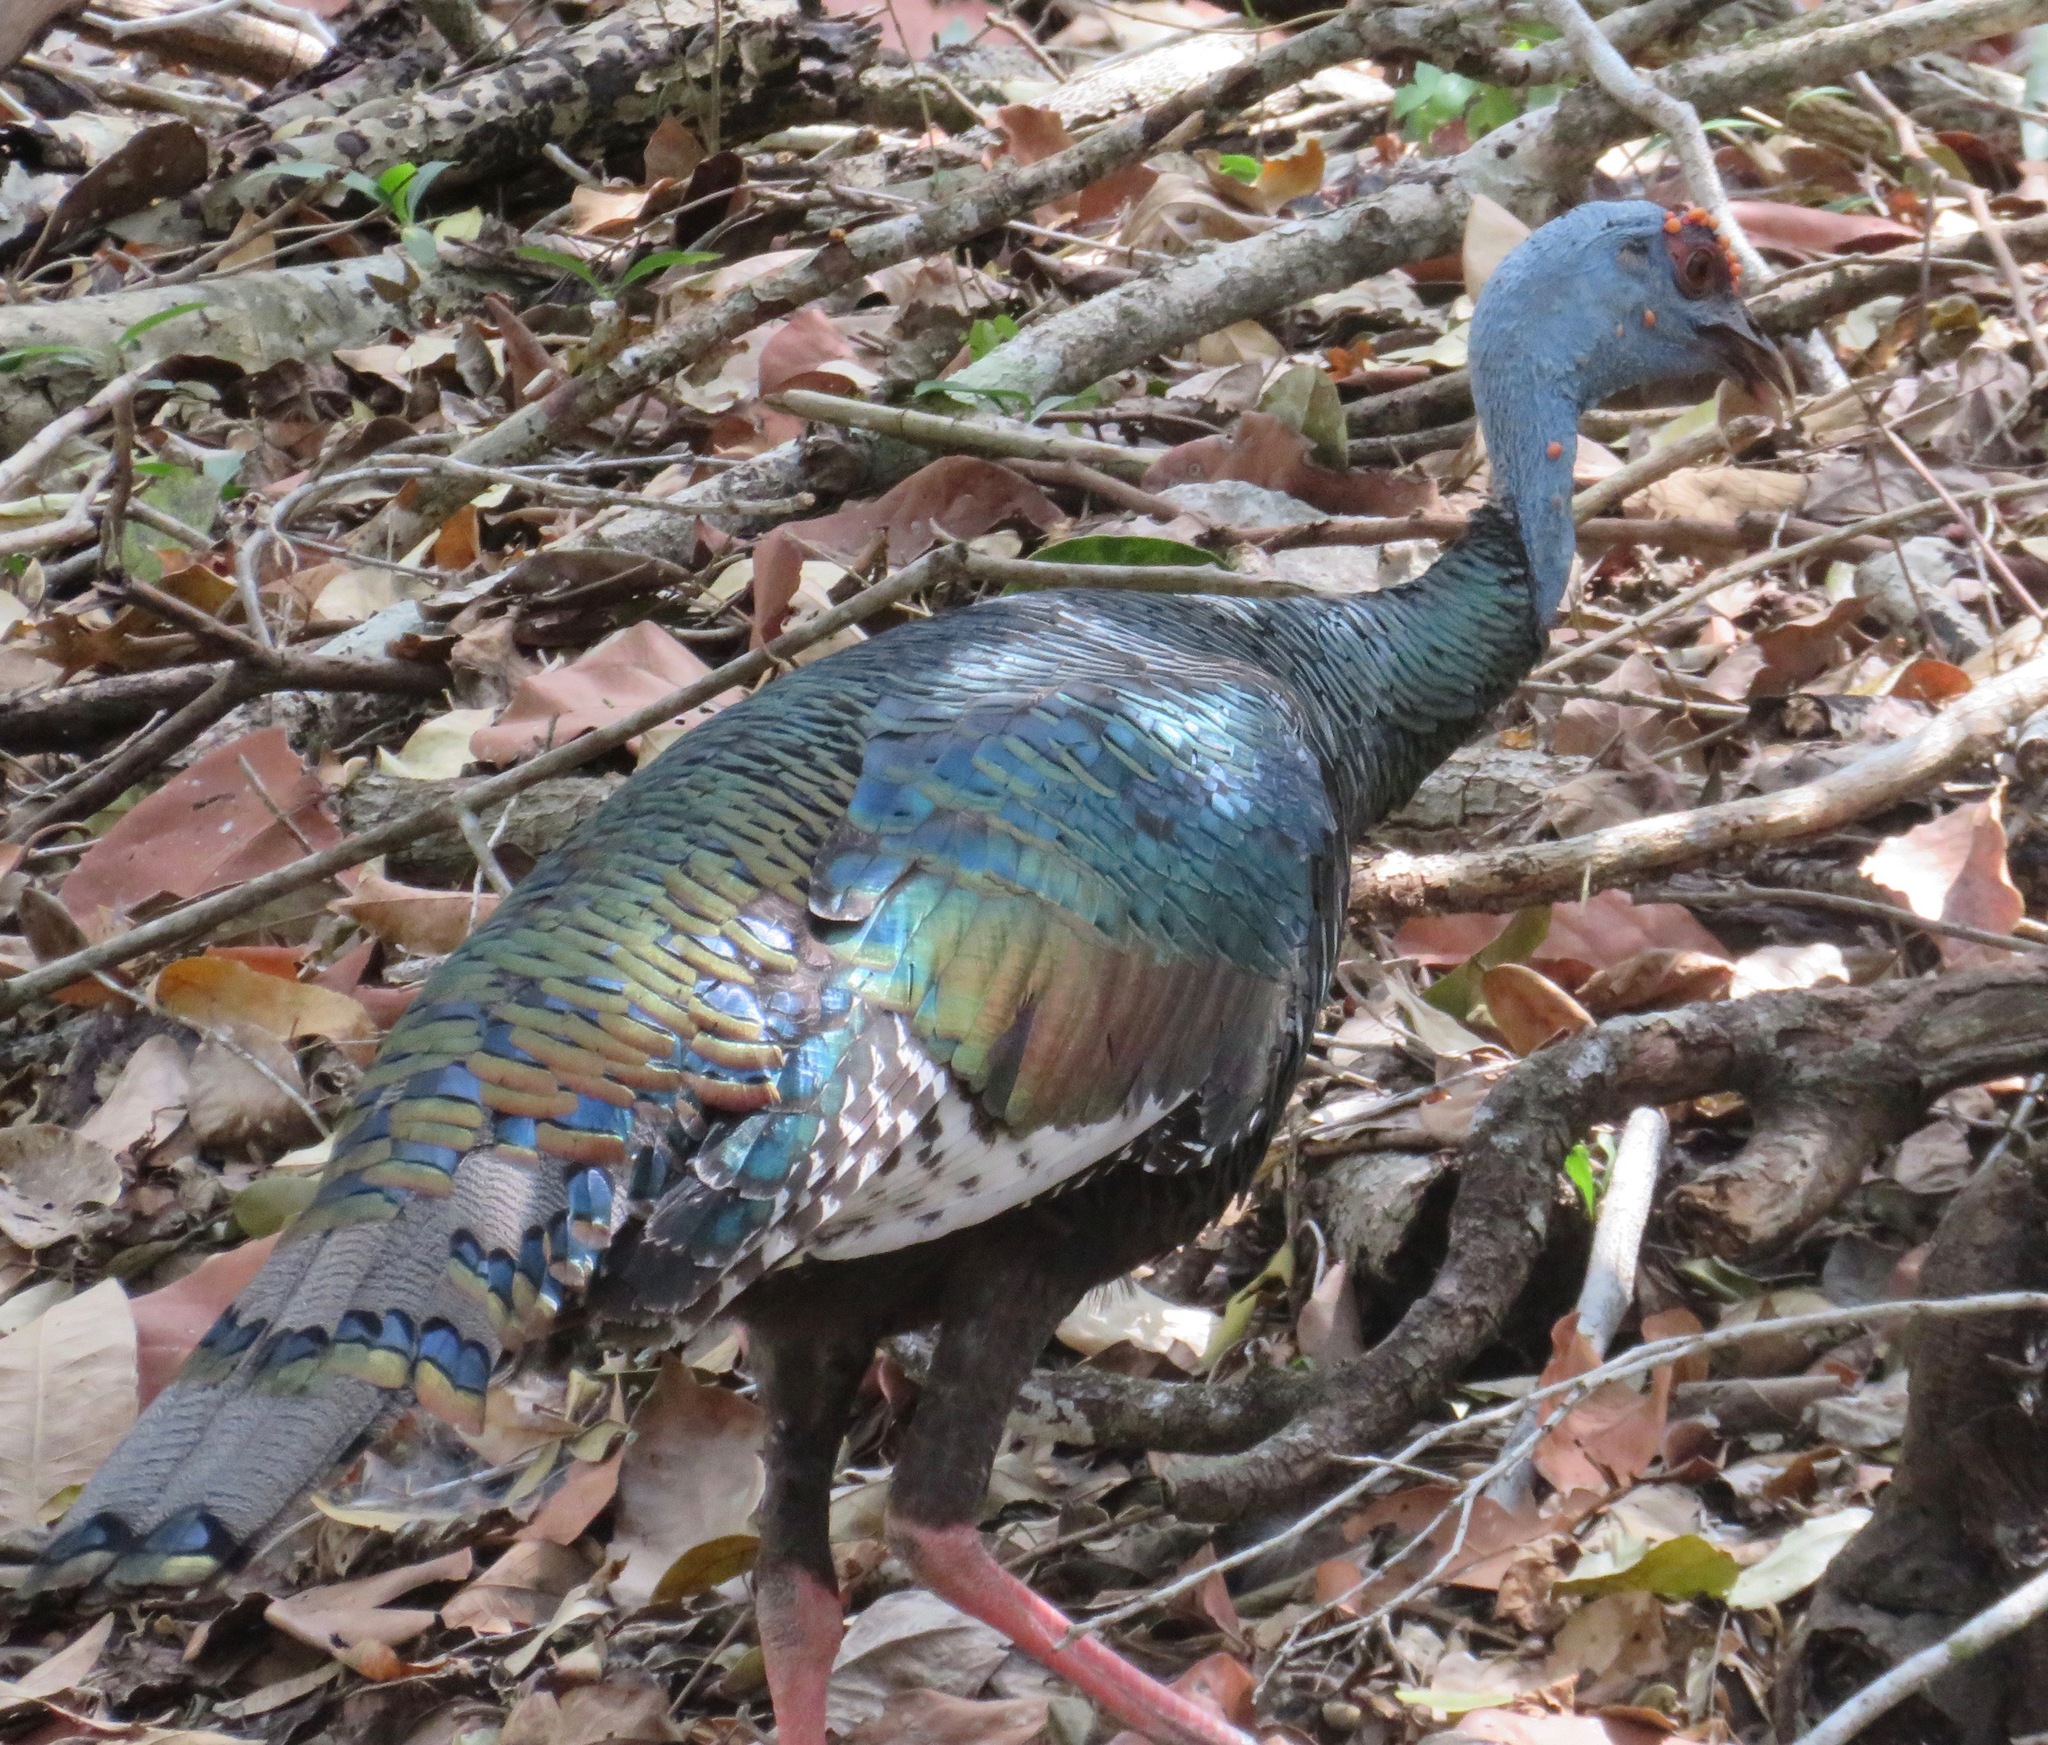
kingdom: Animalia
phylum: Chordata
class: Aves
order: Galliformes
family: Phasianidae
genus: Meleagris
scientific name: Meleagris ocellata
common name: Ocellated turkey
